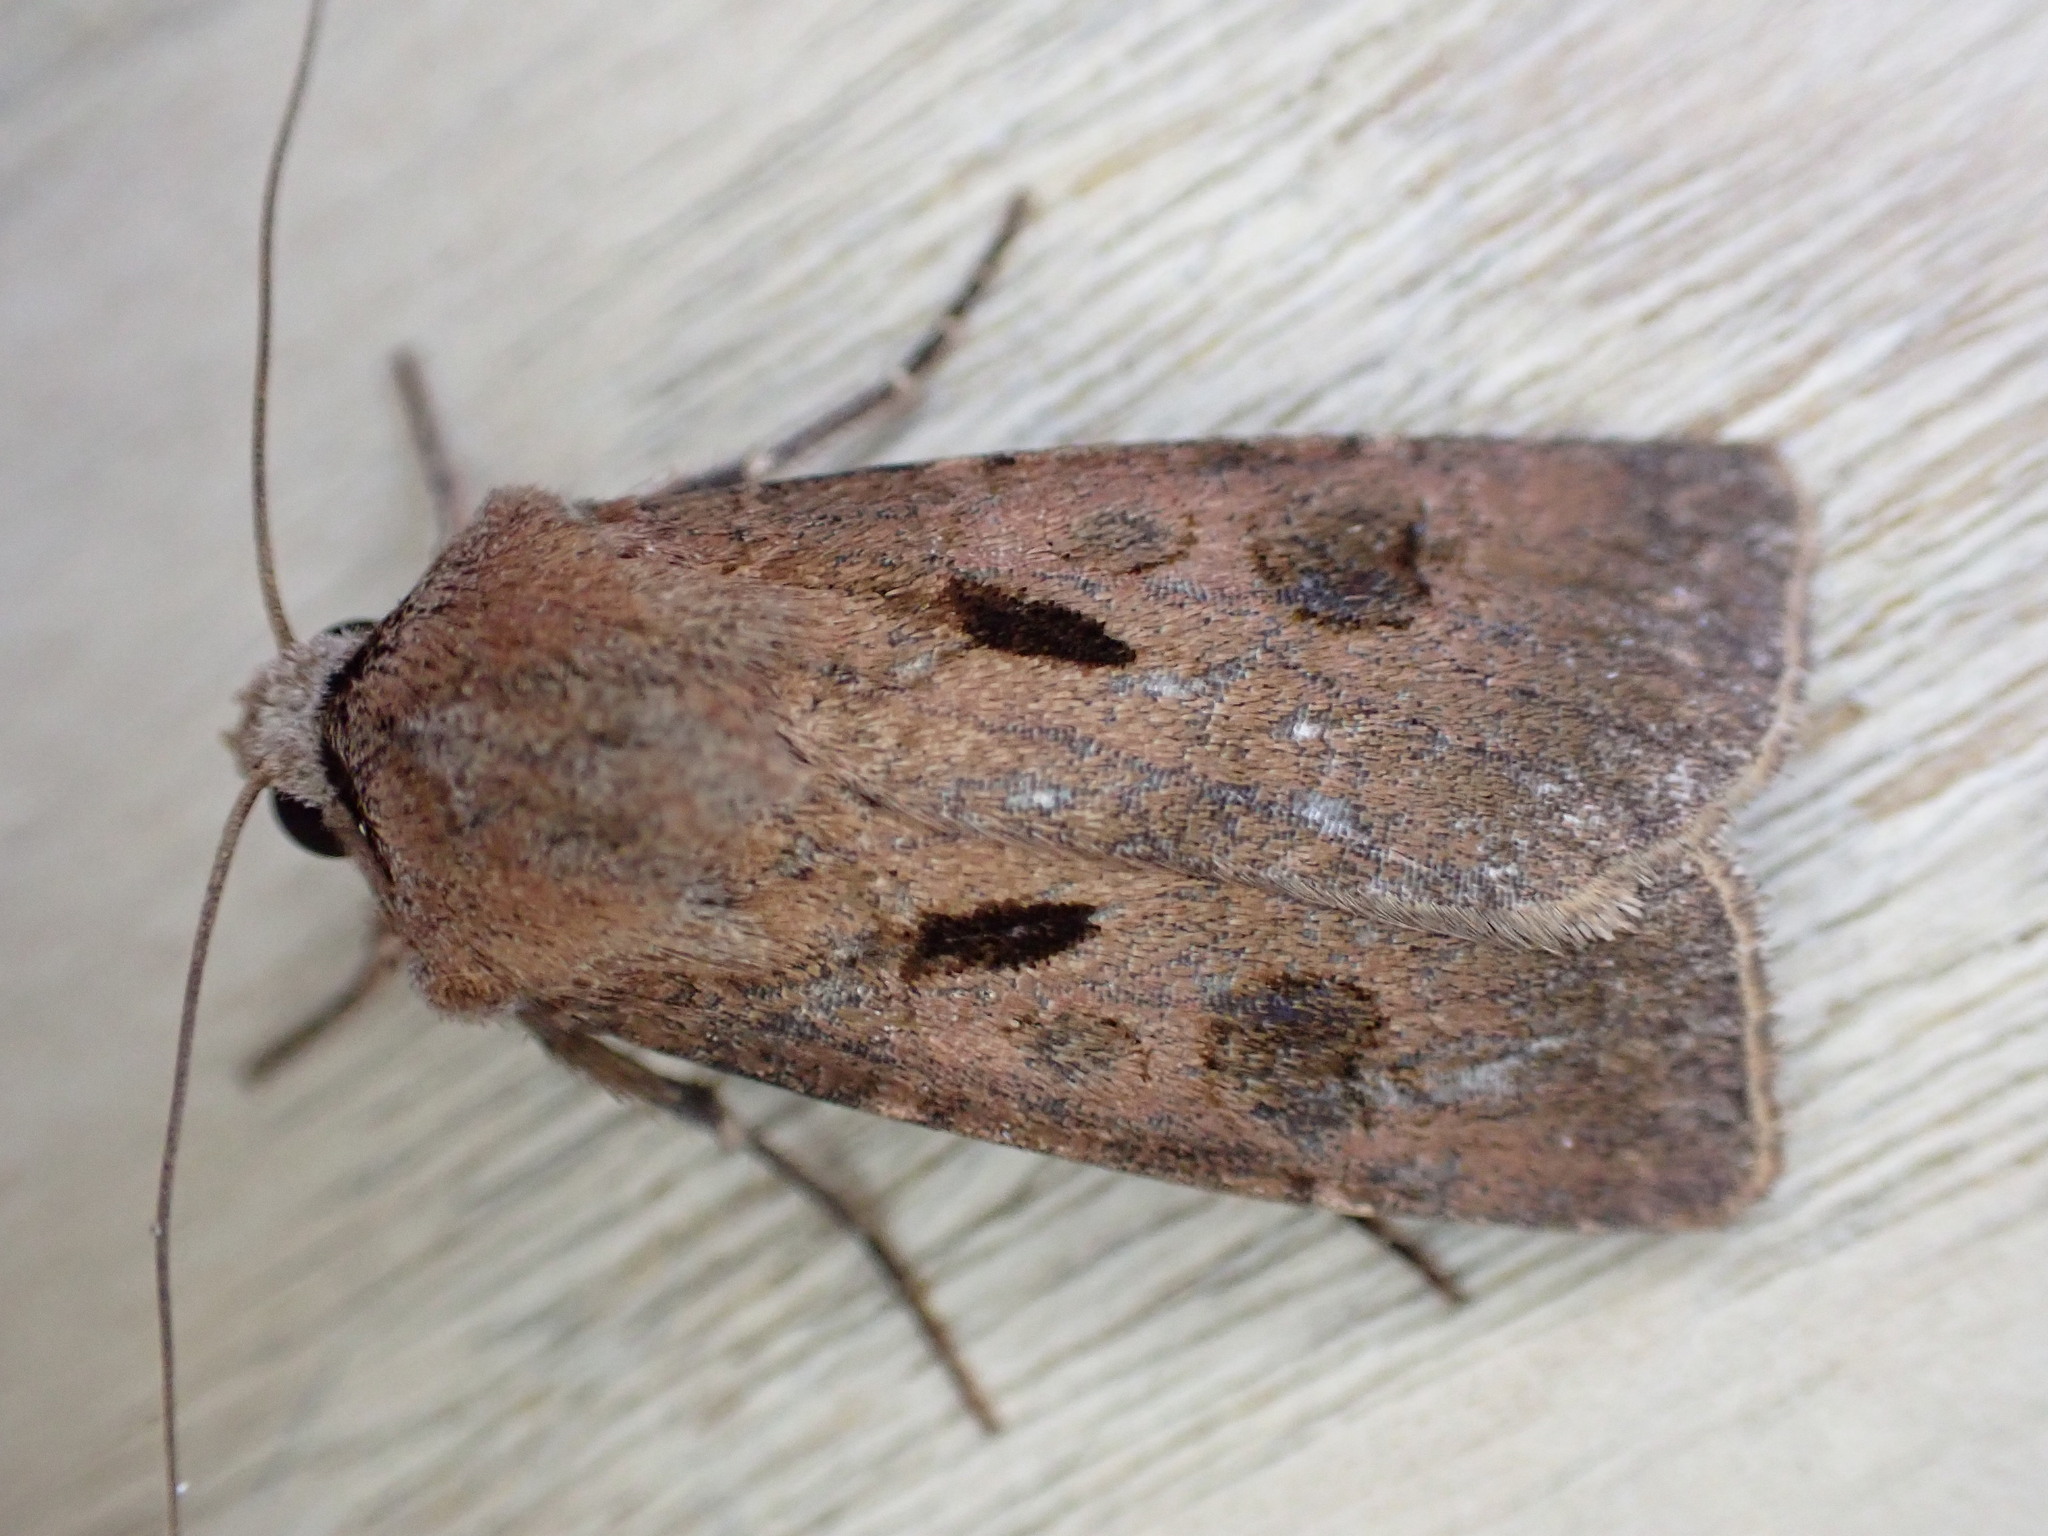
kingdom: Animalia
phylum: Arthropoda
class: Insecta
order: Lepidoptera
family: Noctuidae
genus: Agrotis
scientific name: Agrotis exclamationis
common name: Heart and dart
